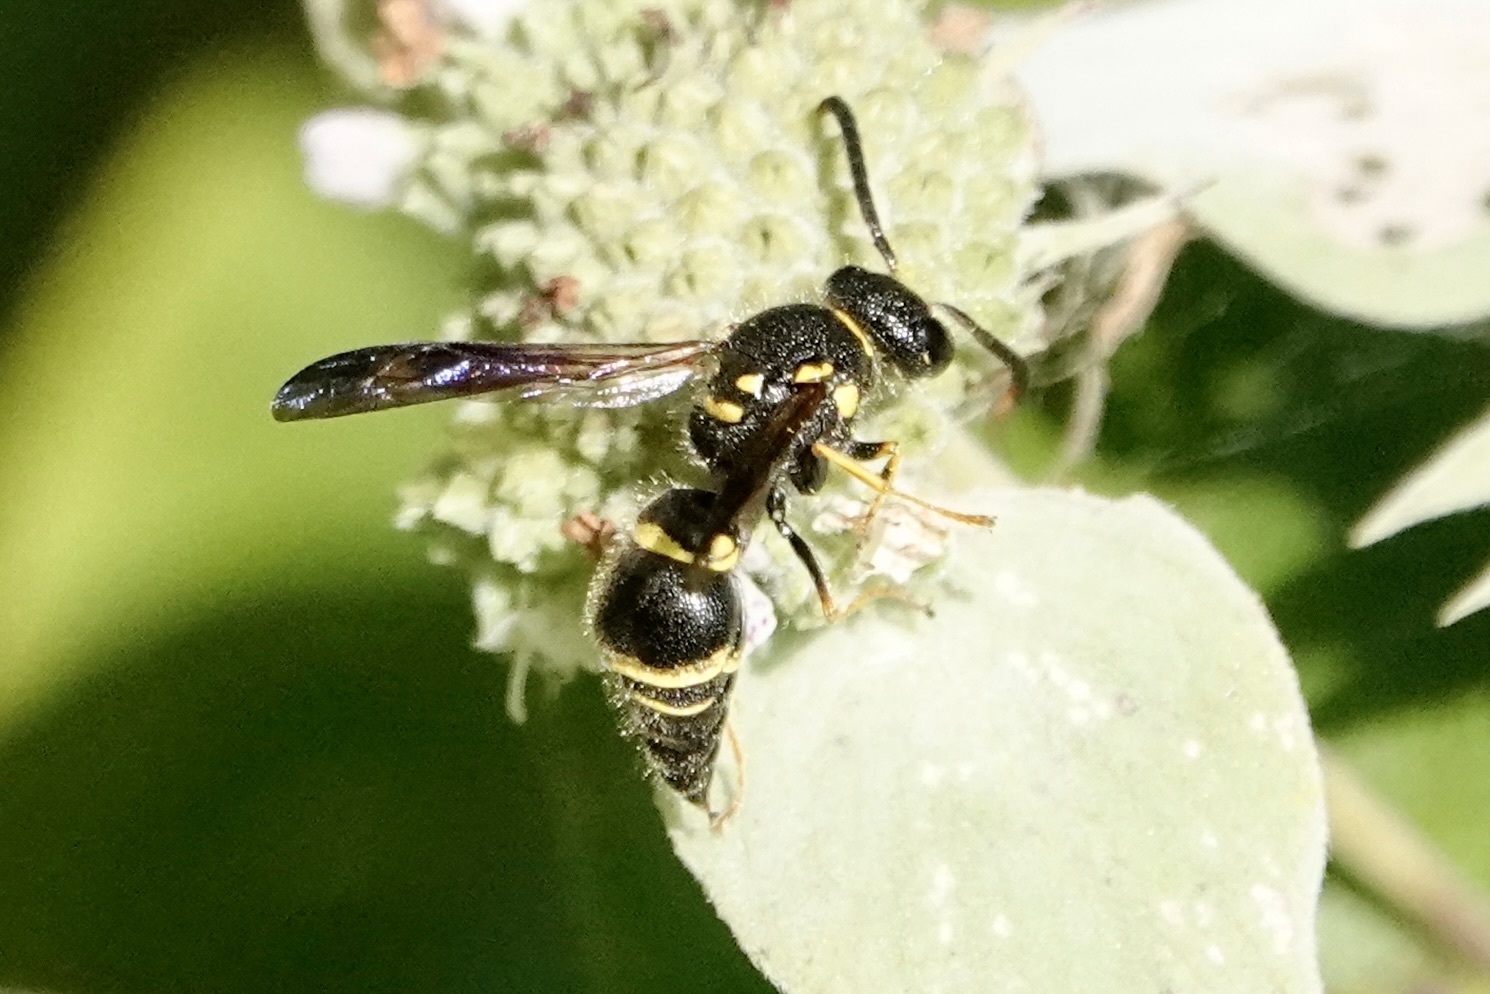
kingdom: Animalia
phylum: Arthropoda
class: Insecta
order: Hymenoptera
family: Vespidae
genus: Ancistrocerus
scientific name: Ancistrocerus campestris
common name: Smiling mason wasp
